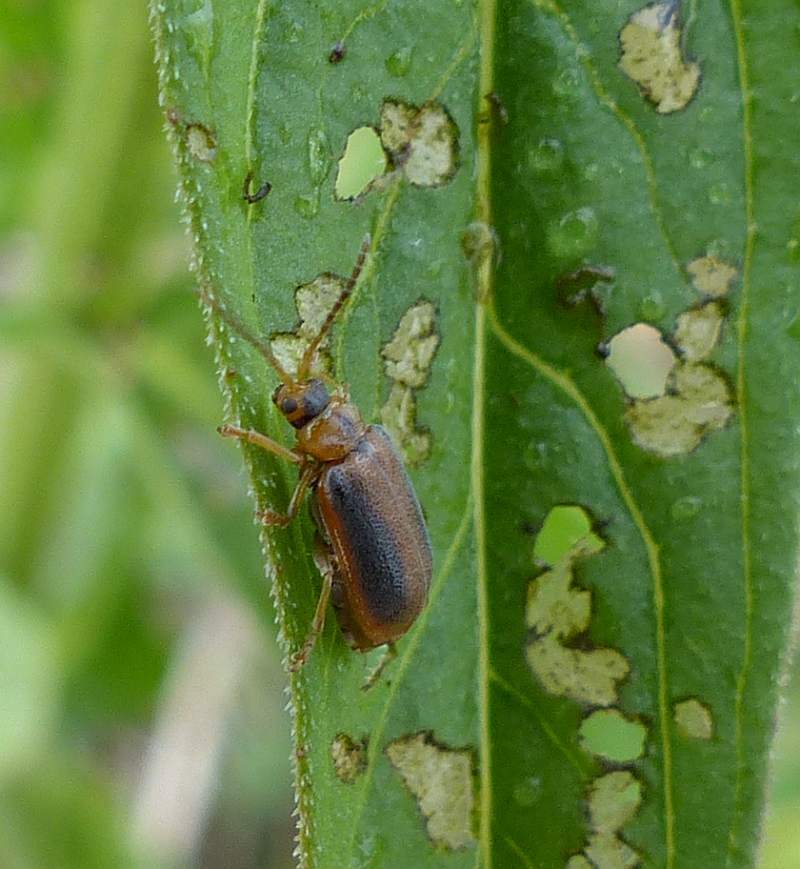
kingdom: Animalia
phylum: Arthropoda
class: Insecta
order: Coleoptera
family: Chrysomelidae
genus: Neogalerucella
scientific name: Neogalerucella calmariensis
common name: Black-margined loosestrife beetle
